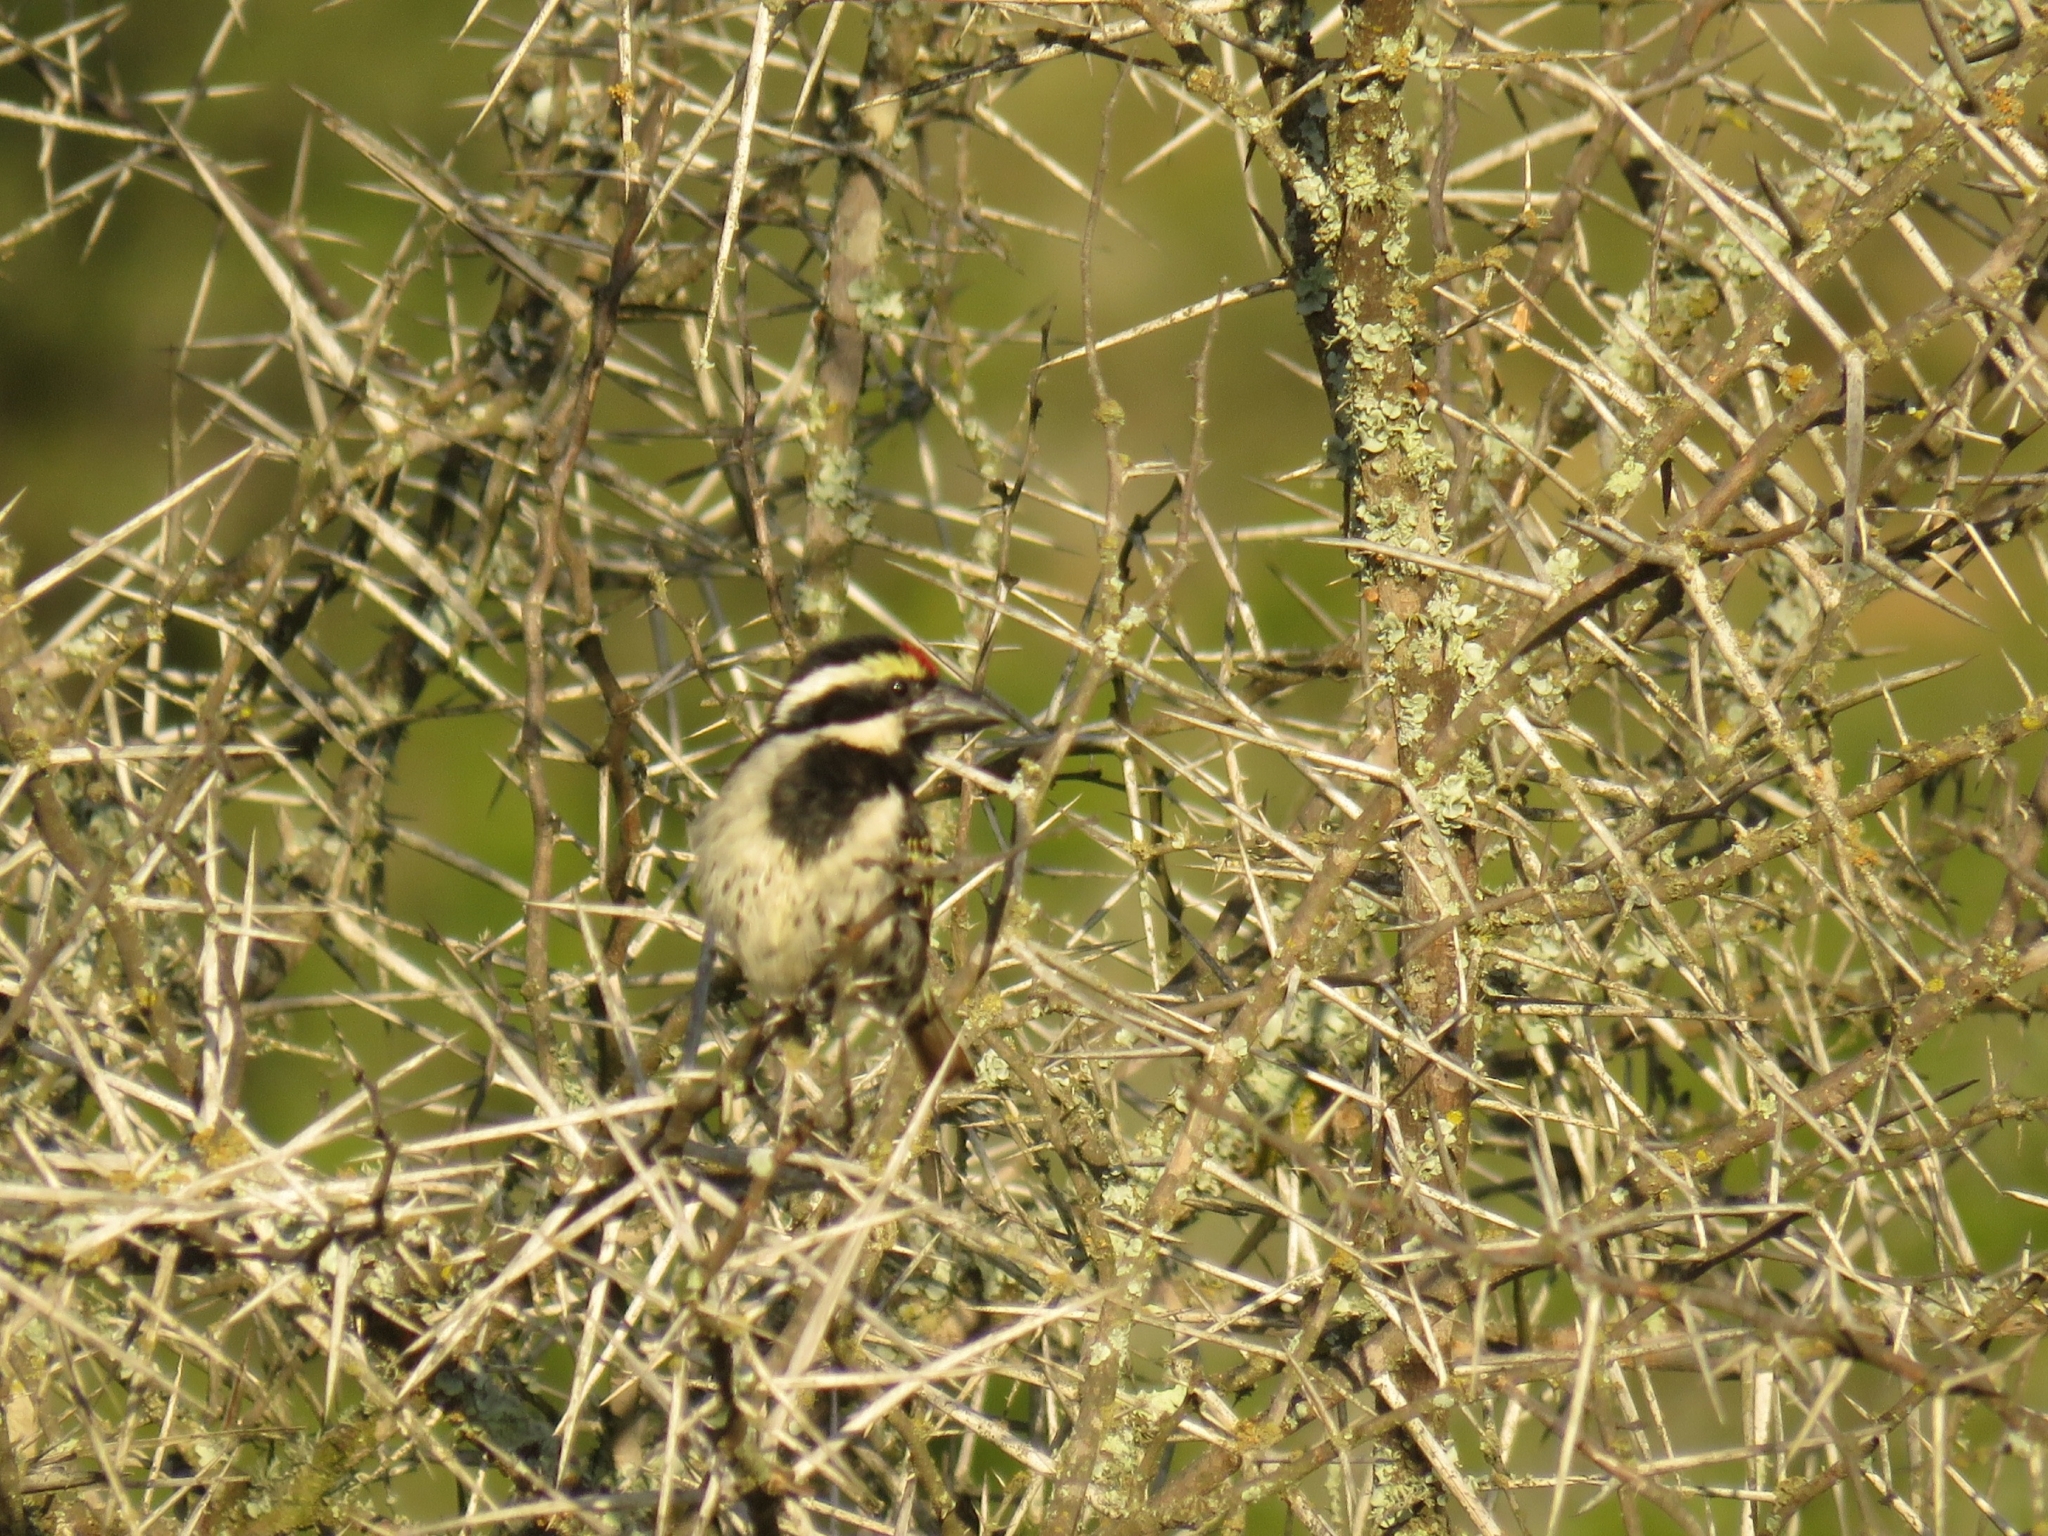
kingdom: Animalia
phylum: Chordata
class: Aves
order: Piciformes
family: Lybiidae
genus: Tricholaema
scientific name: Tricholaema leucomelas
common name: Acacia pied barbet
